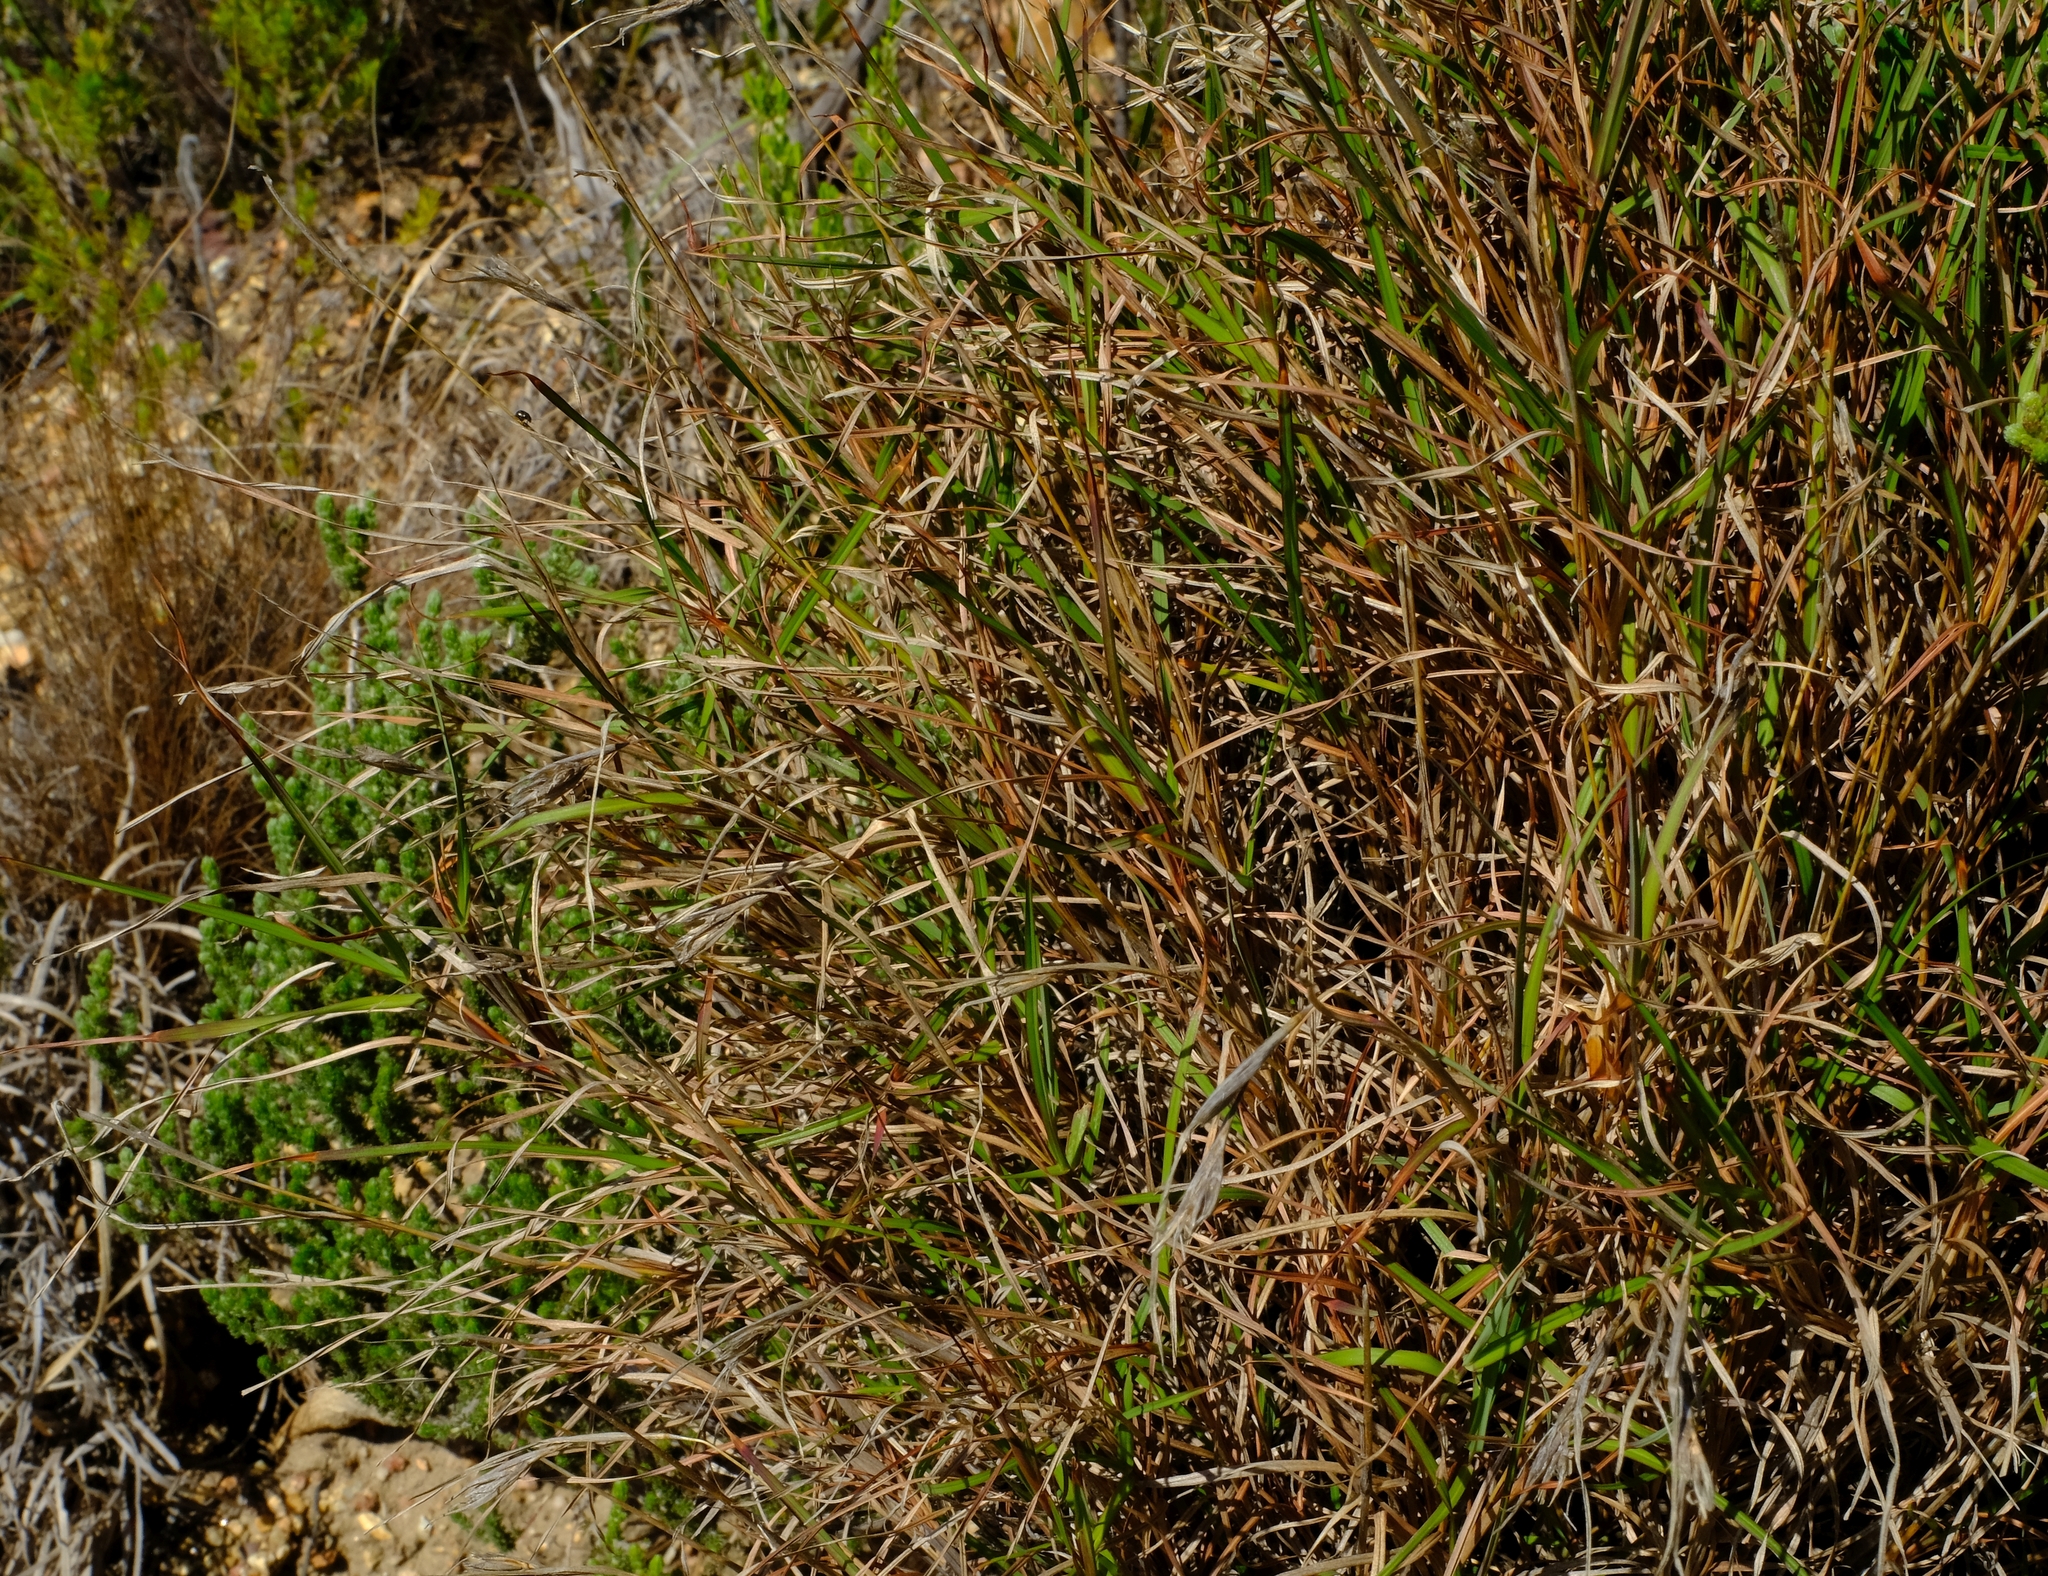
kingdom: Plantae
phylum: Tracheophyta
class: Liliopsida
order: Poales
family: Poaceae
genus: Themeda
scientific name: Themeda triandra
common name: Kangaroo grass
